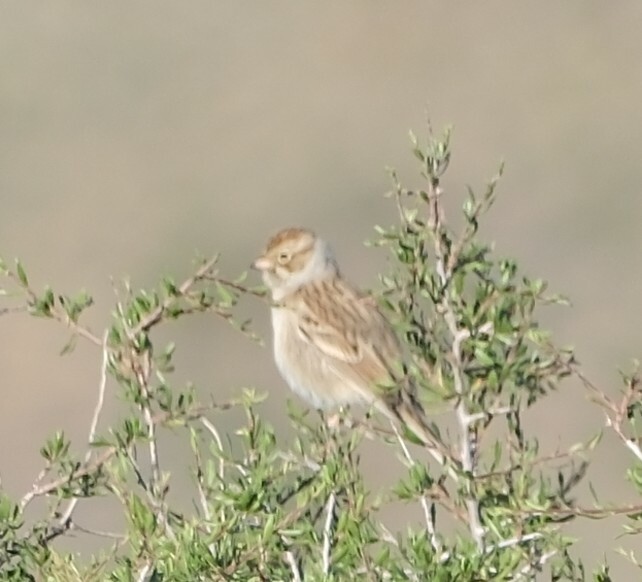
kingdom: Animalia
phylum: Chordata
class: Aves
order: Passeriformes
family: Passerellidae
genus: Spizella
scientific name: Spizella breweri
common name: Brewer's sparrow
